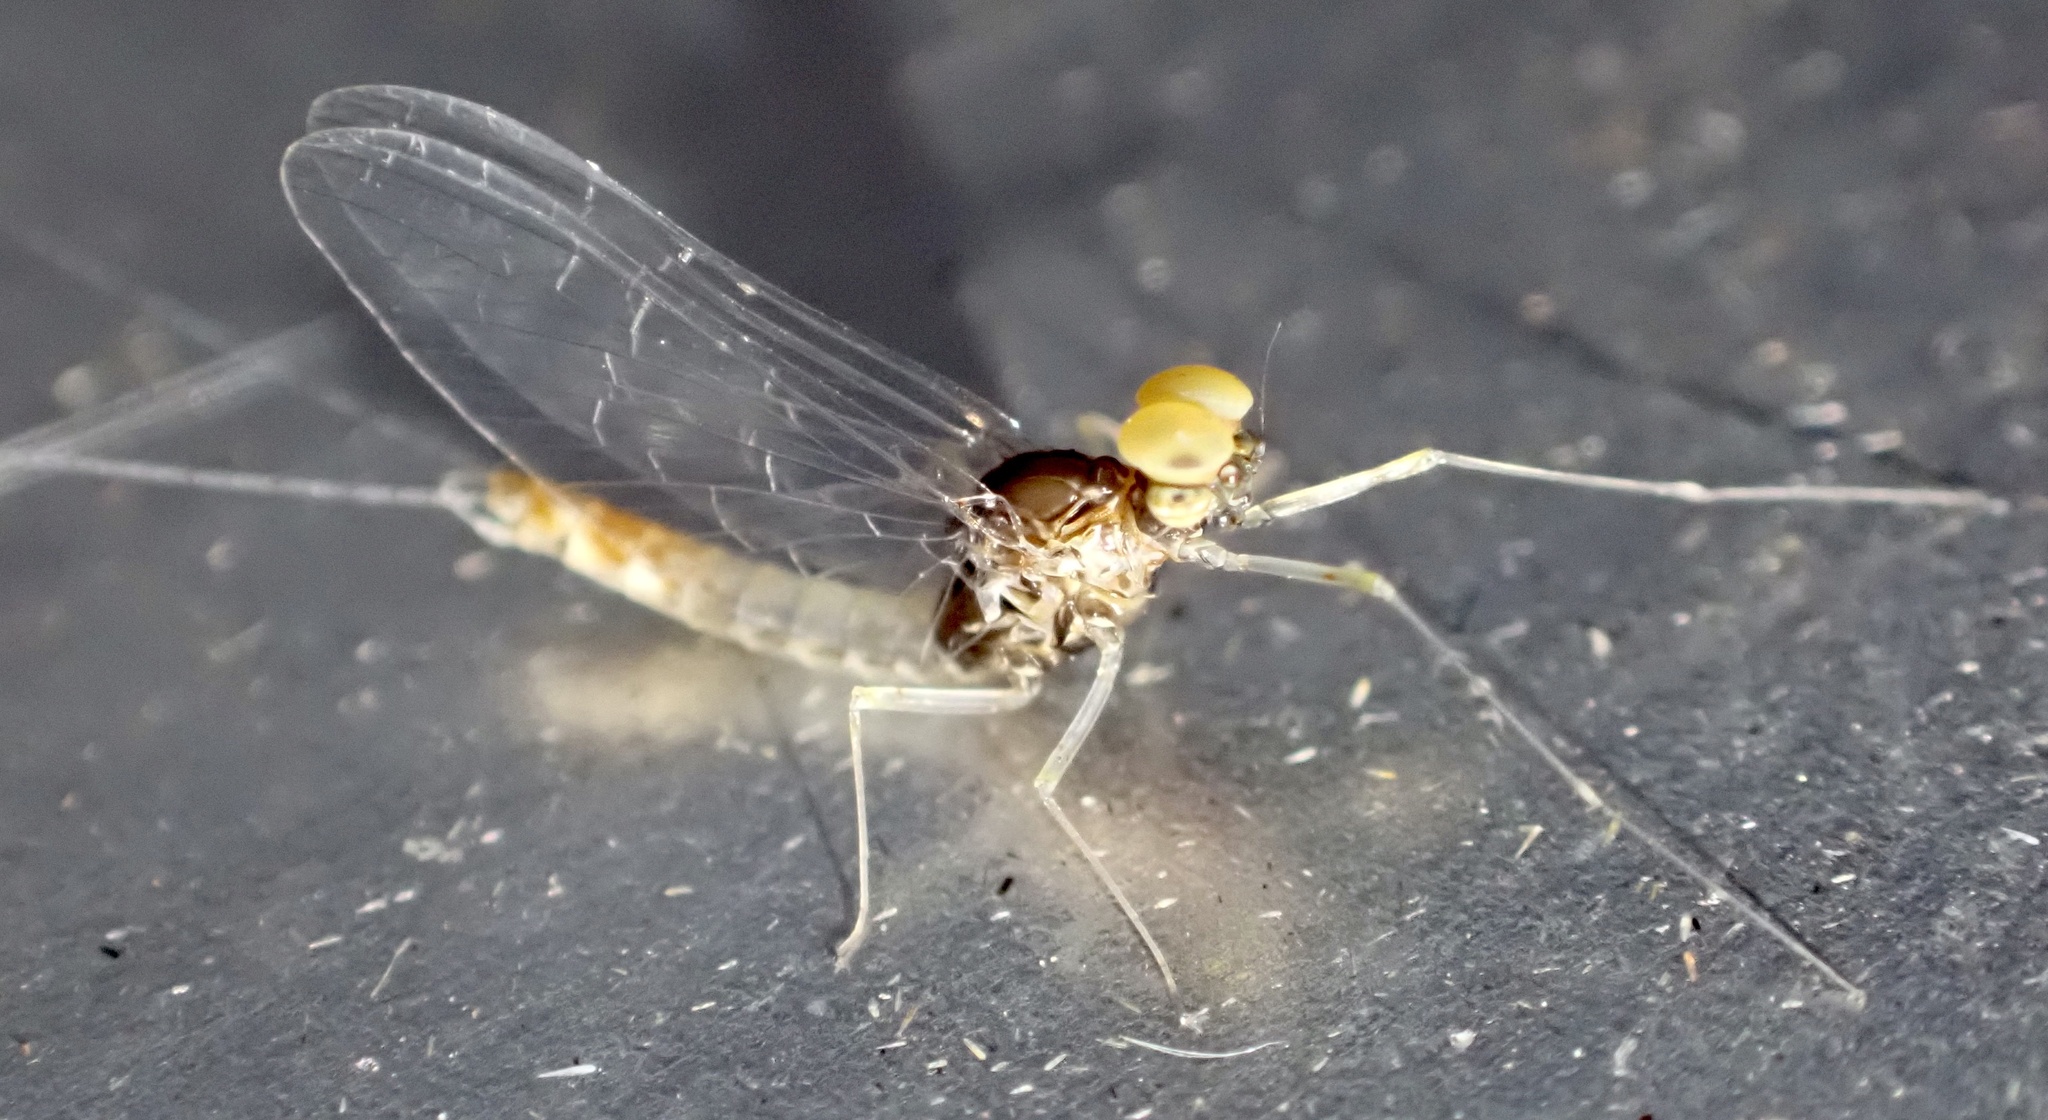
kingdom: Animalia
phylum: Arthropoda
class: Insecta
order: Ephemeroptera
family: Baetidae
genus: Cloeon
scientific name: Cloeon dipterum
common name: Pond olive
